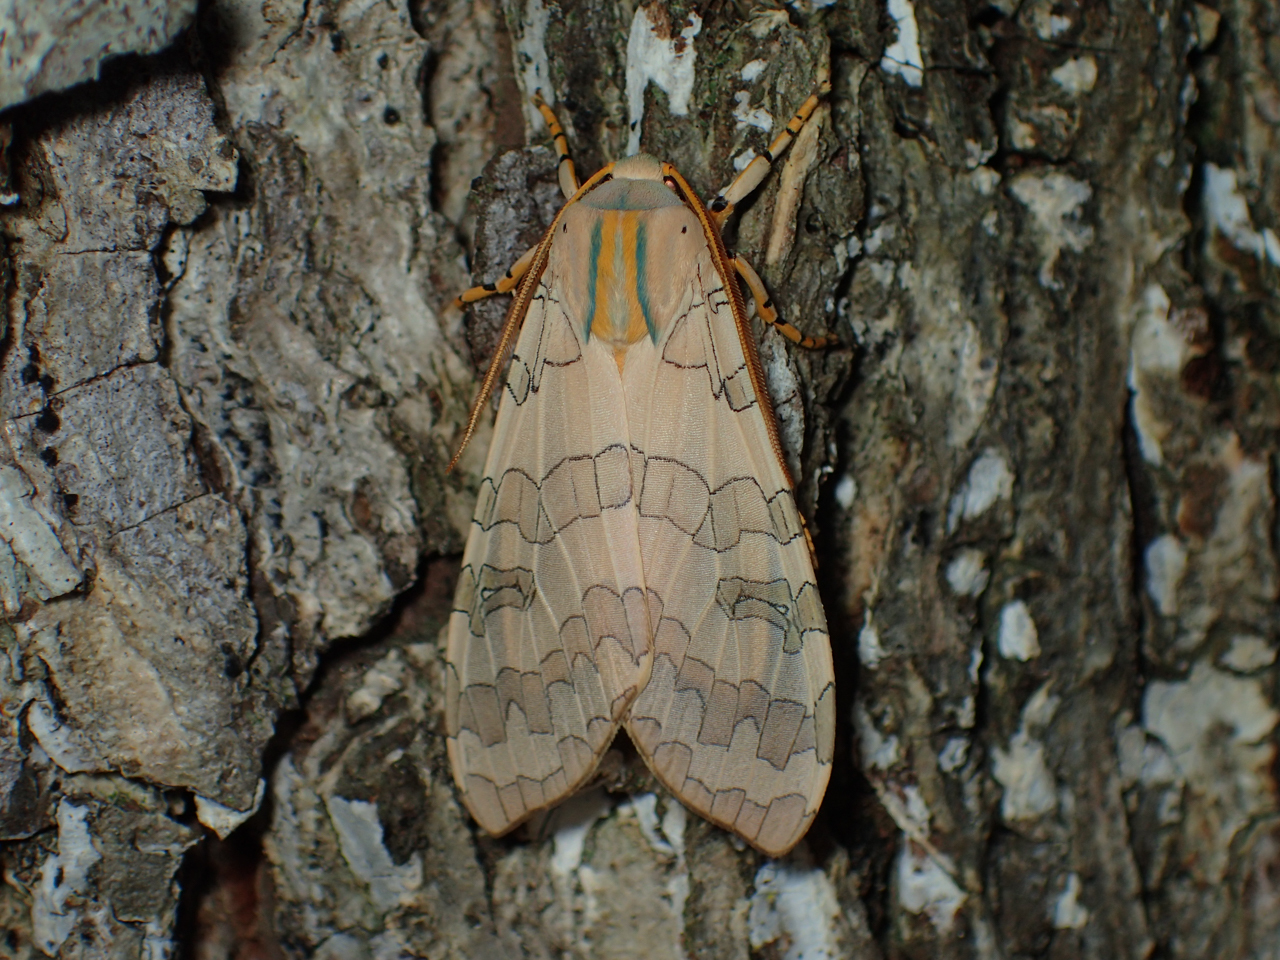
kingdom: Animalia
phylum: Arthropoda
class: Insecta
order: Lepidoptera
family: Erebidae
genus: Halysidota
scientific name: Halysidota
